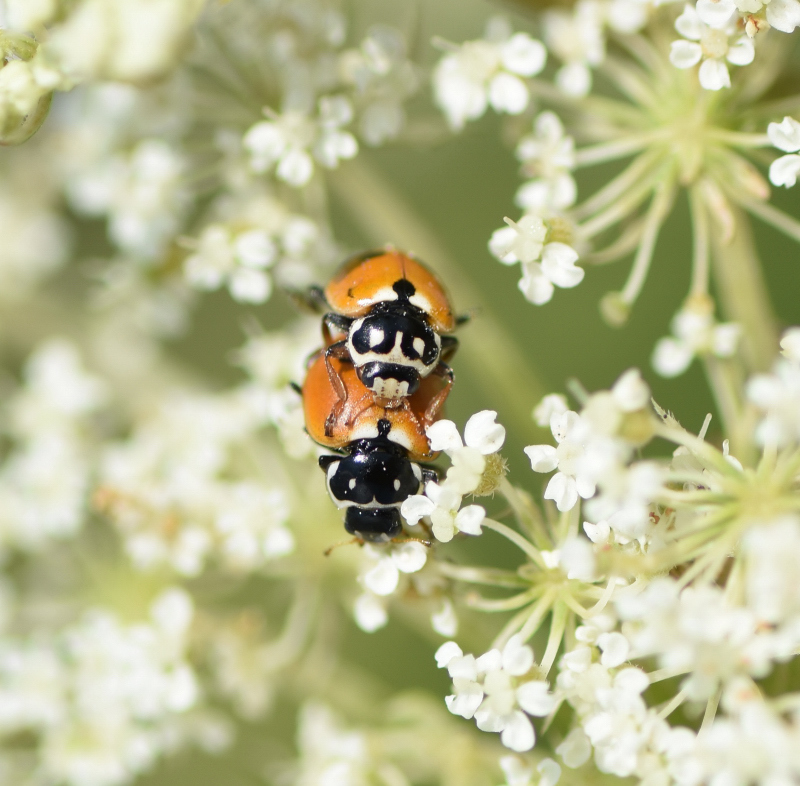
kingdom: Animalia
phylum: Arthropoda
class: Insecta
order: Coleoptera
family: Coccinellidae
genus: Hippodamia
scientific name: Hippodamia variegata
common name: Ladybird beetle
